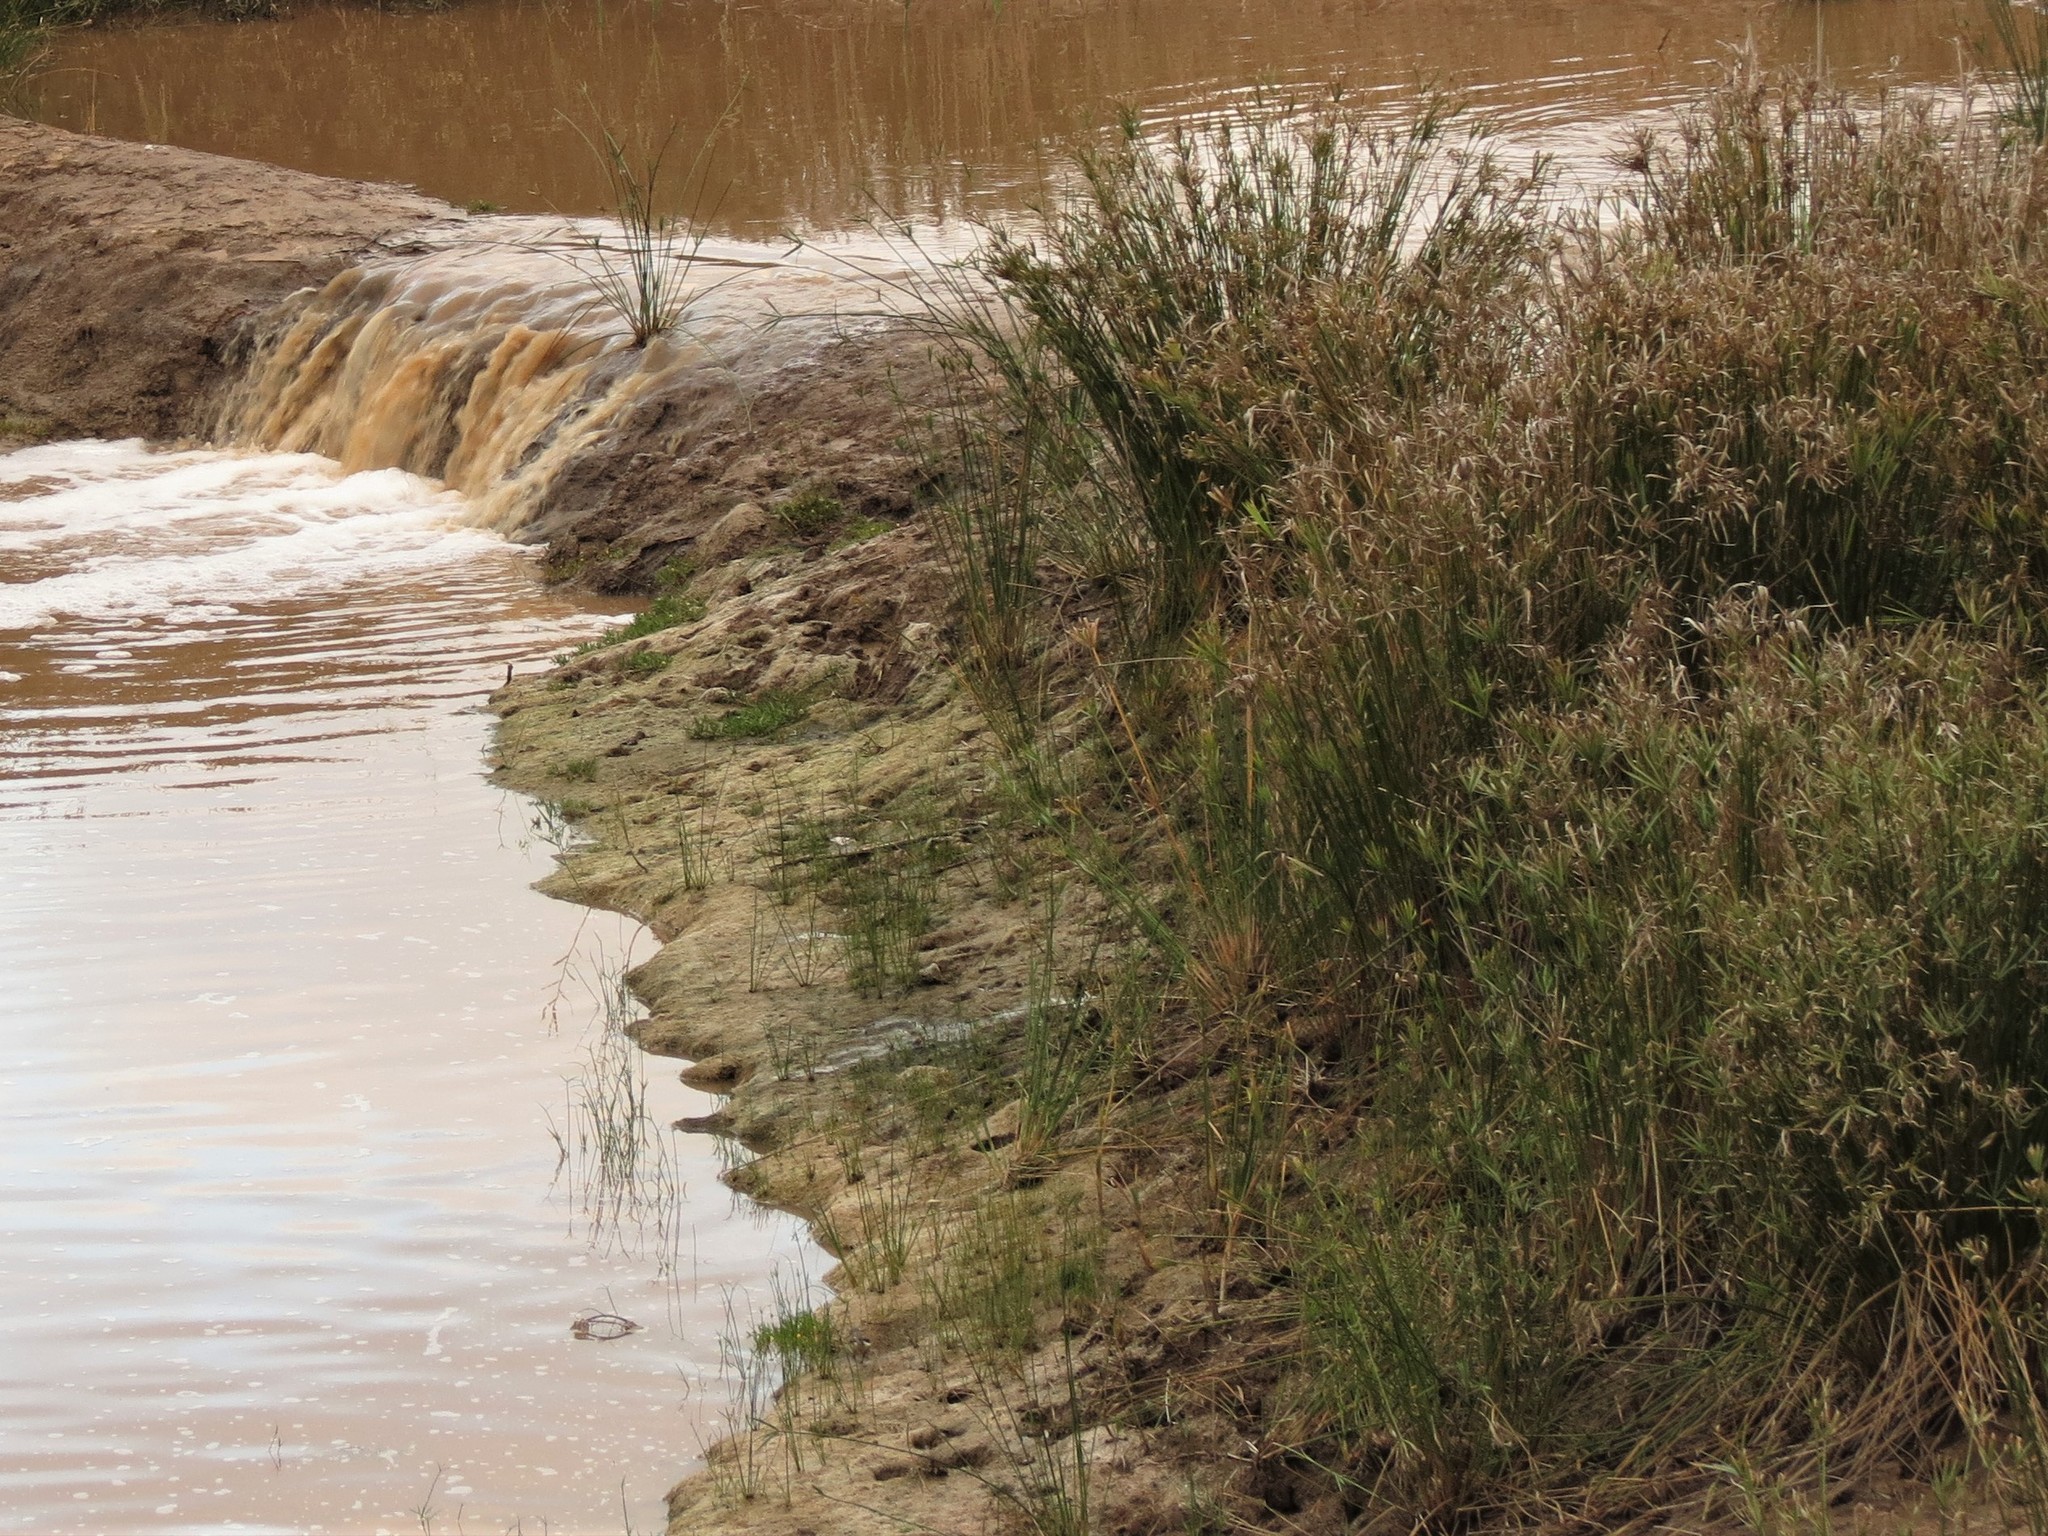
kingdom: Plantae
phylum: Tracheophyta
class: Liliopsida
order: Poales
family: Cyperaceae
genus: Cyperus
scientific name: Cyperus textilis
